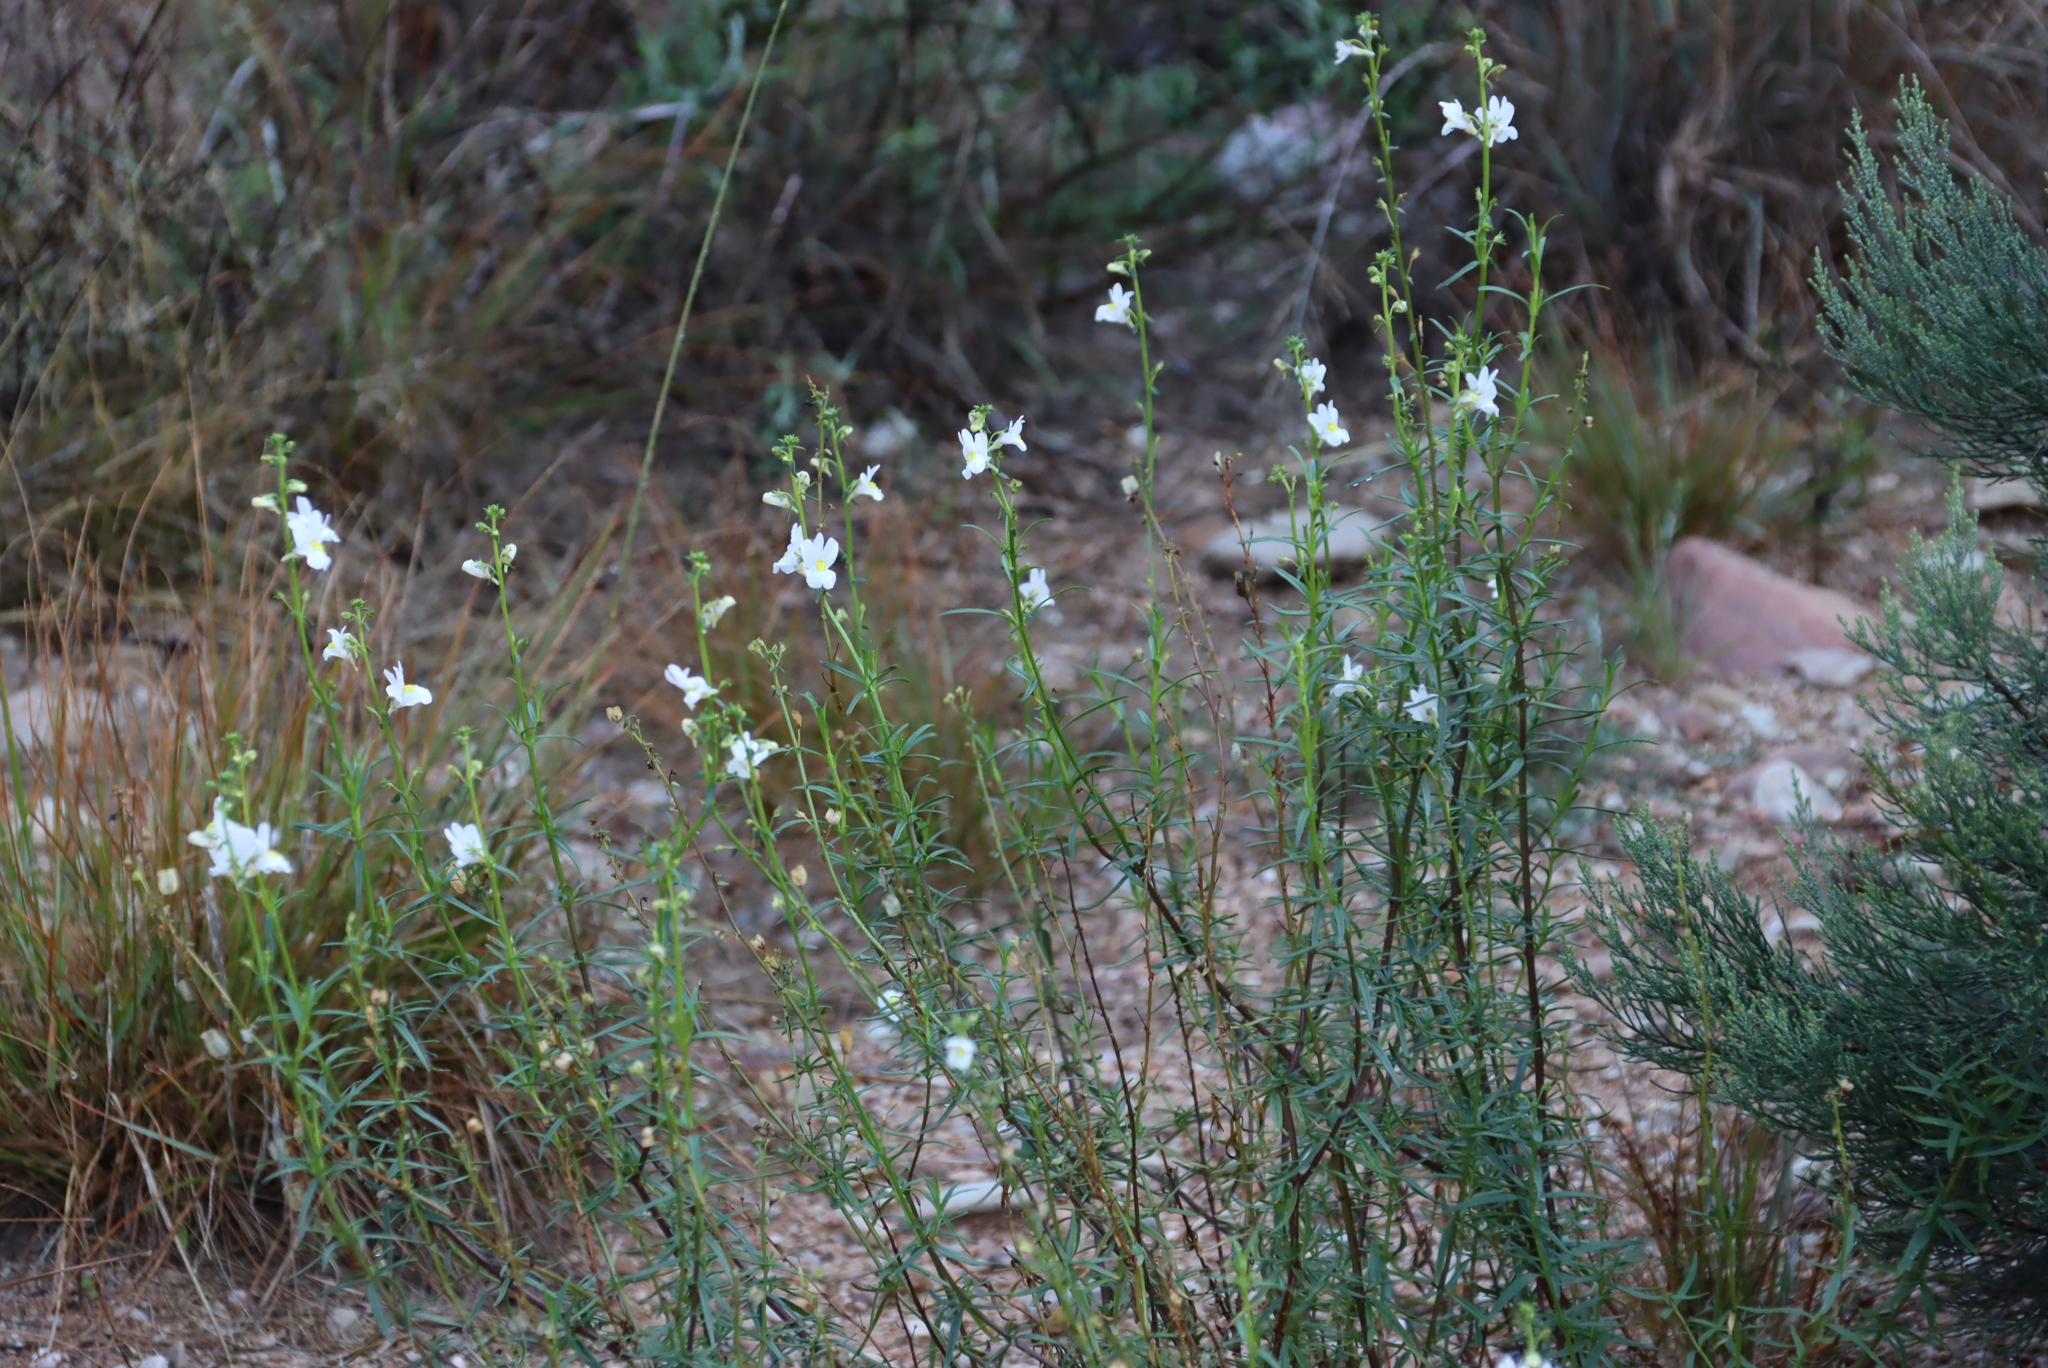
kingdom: Plantae
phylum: Tracheophyta
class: Magnoliopsida
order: Lamiales
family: Scrophulariaceae
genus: Nemesia
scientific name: Nemesia fruticans
